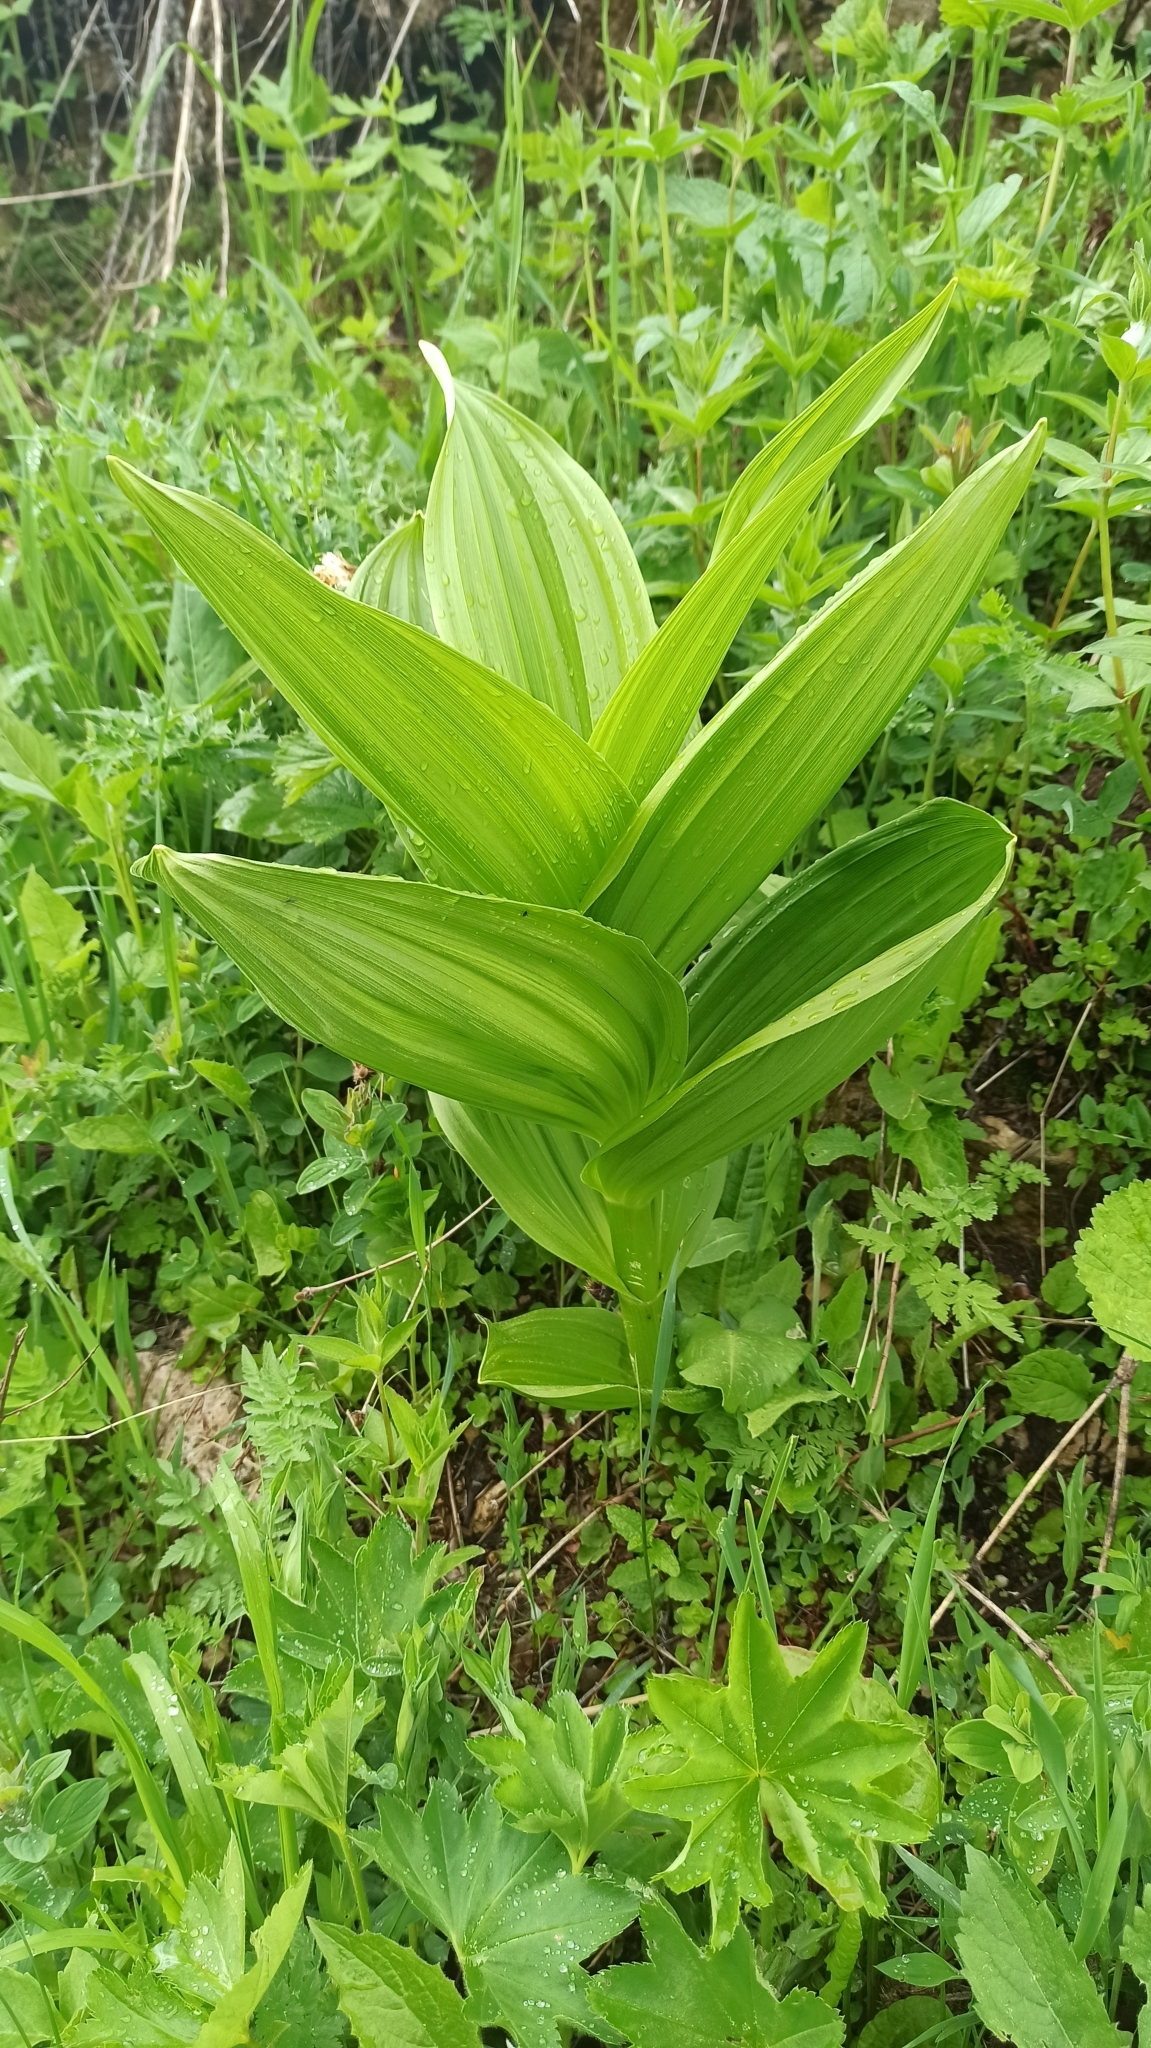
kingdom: Plantae
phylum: Tracheophyta
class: Liliopsida
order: Liliales
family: Melanthiaceae
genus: Veratrum
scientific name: Veratrum lobelianum
